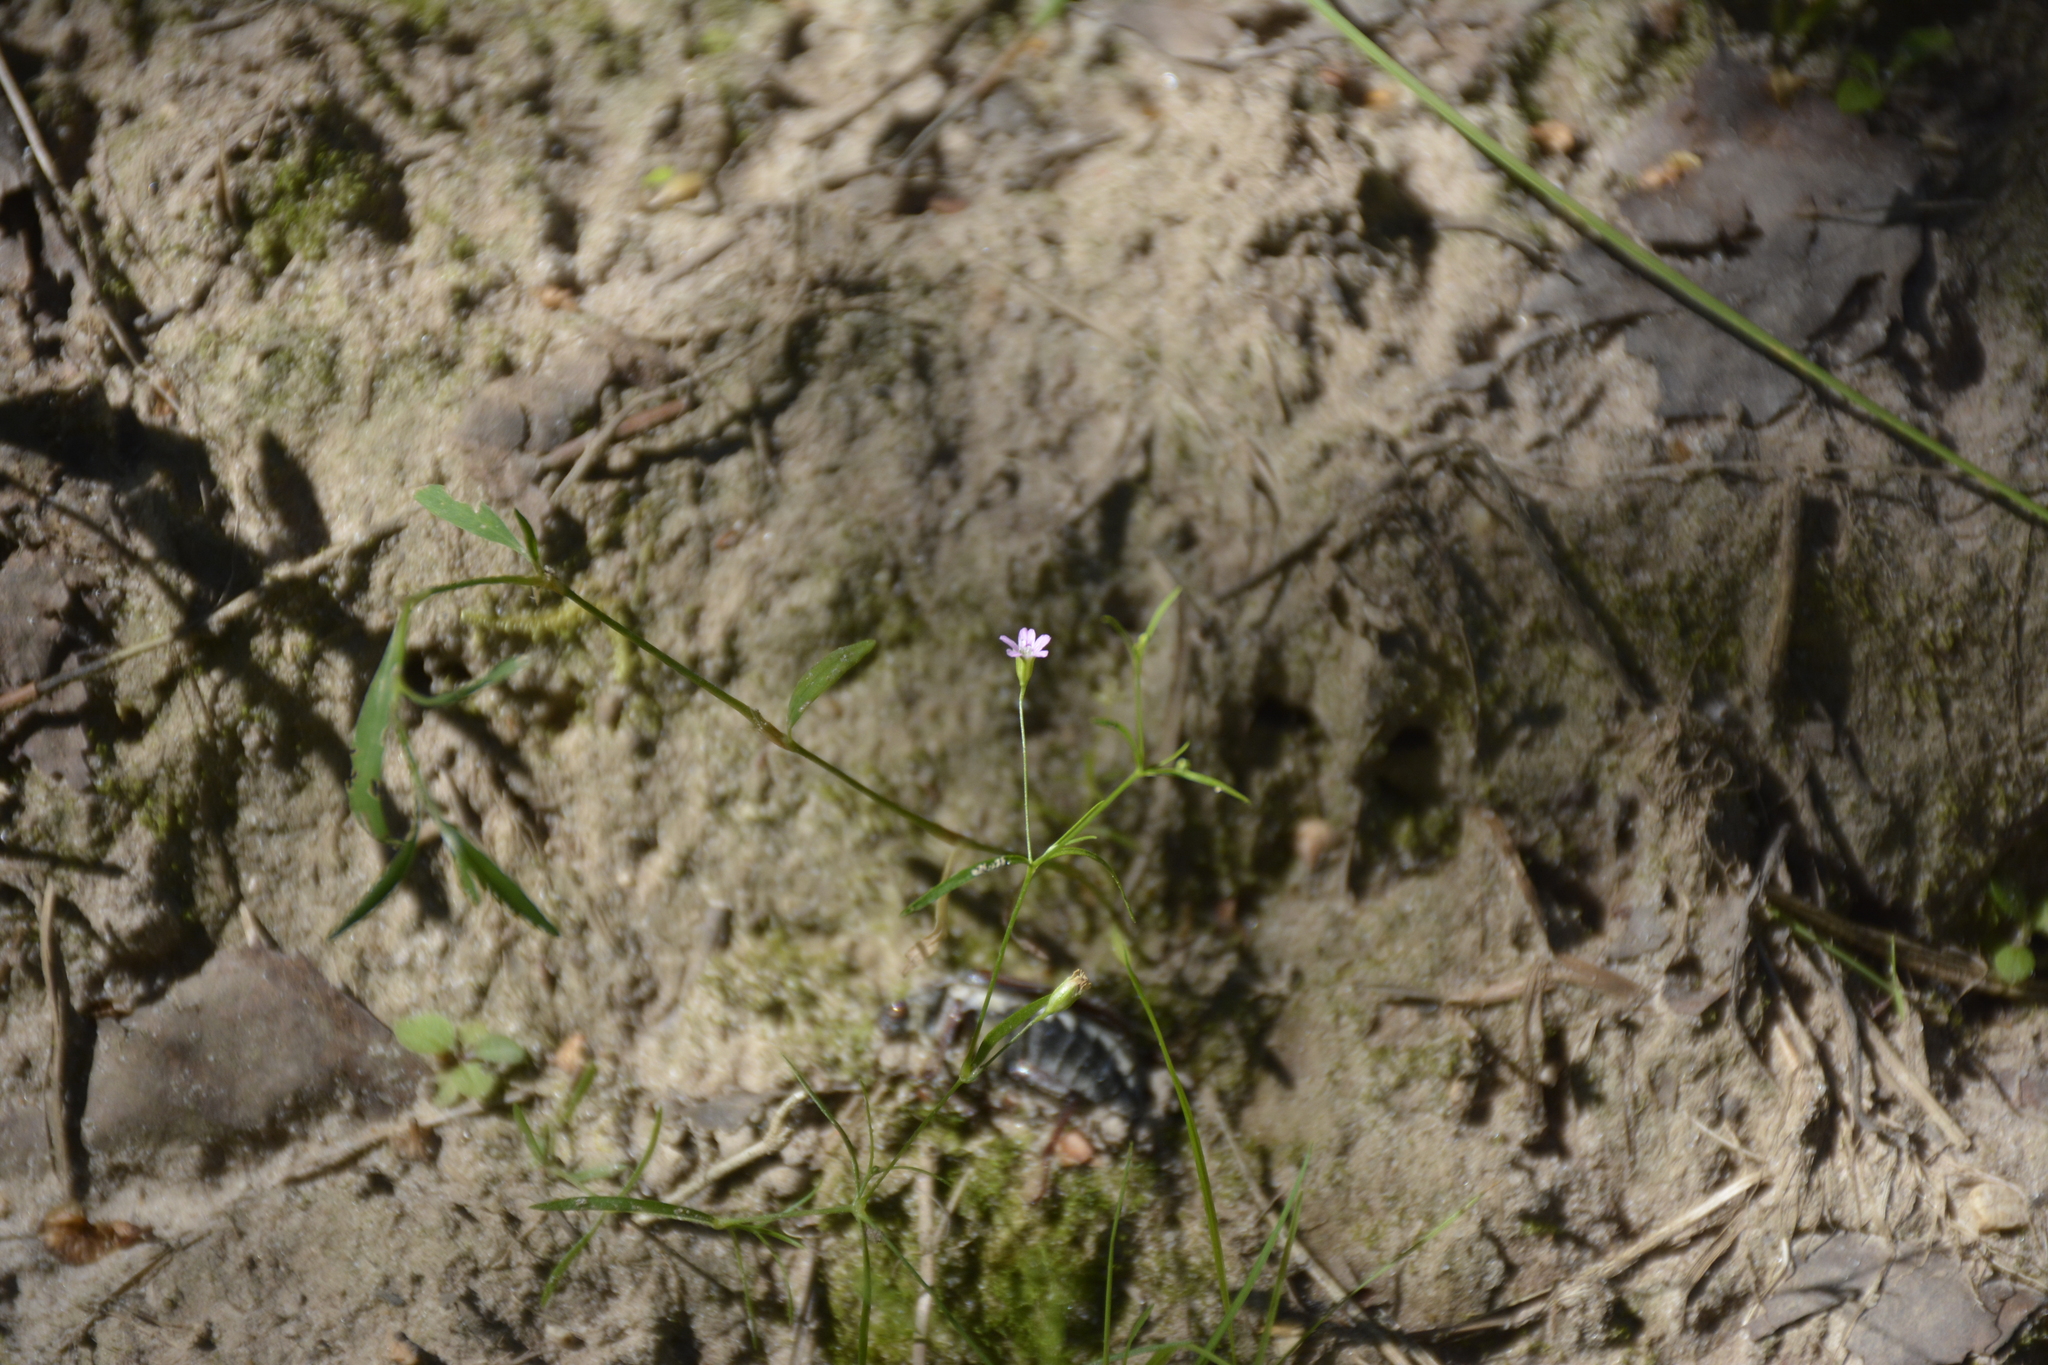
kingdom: Plantae
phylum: Tracheophyta
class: Magnoliopsida
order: Caryophyllales
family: Caryophyllaceae
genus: Psammophiliella
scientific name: Psammophiliella muralis
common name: Cushion baby's-breath
